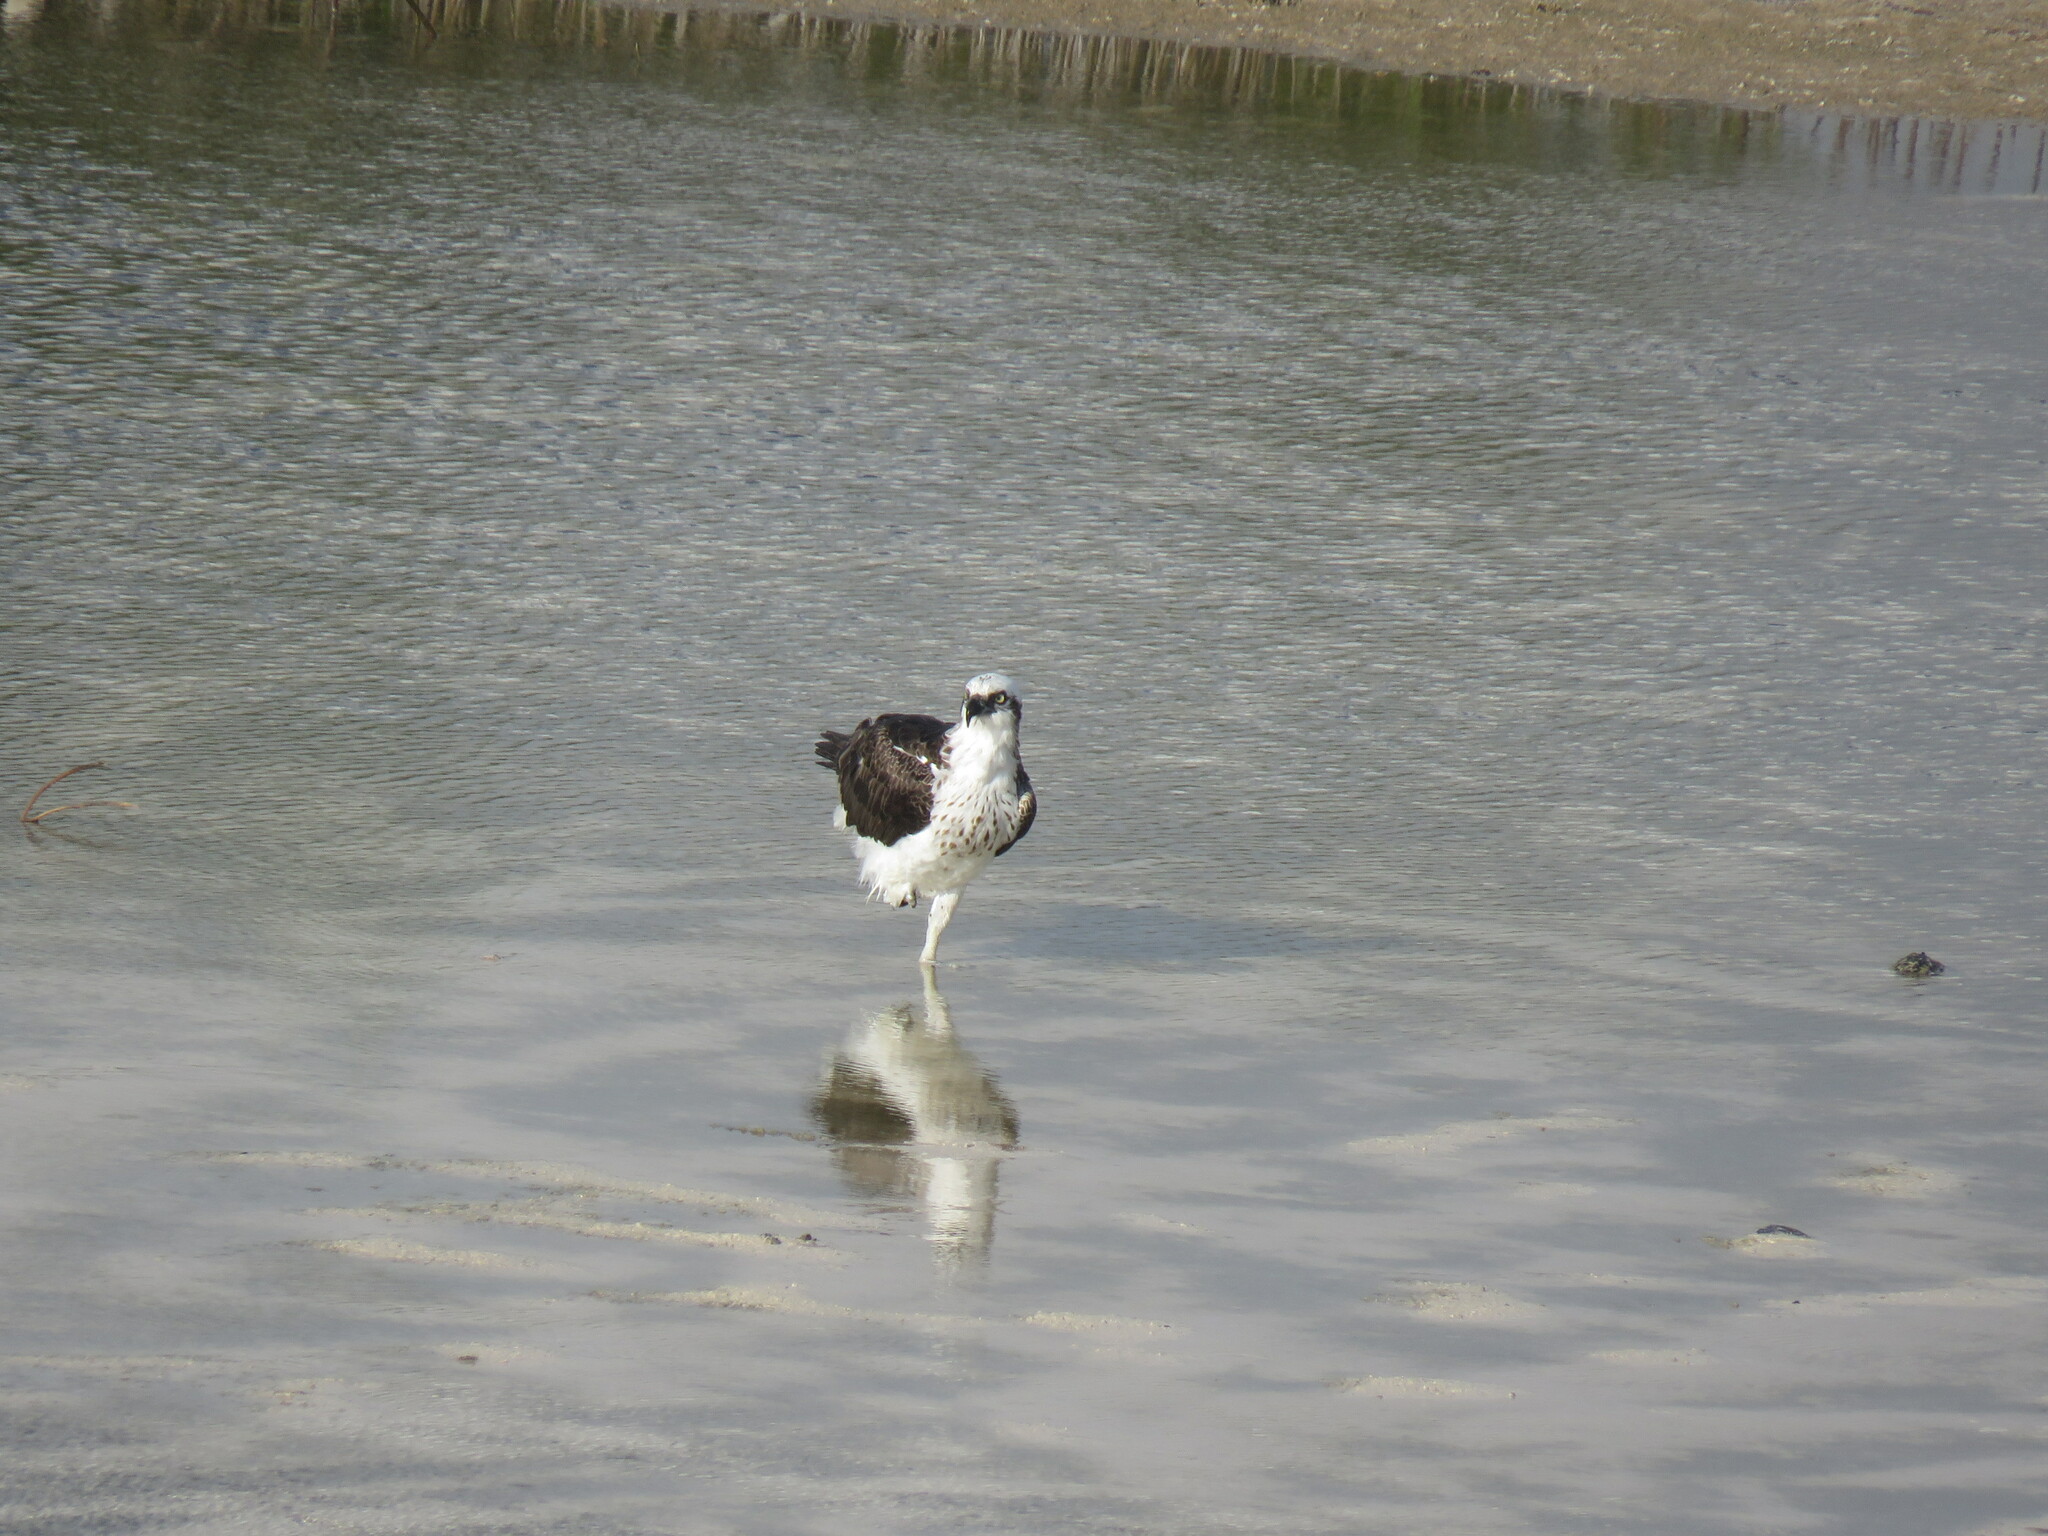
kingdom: Animalia
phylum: Chordata
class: Aves
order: Accipitriformes
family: Pandionidae
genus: Pandion
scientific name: Pandion haliaetus
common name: Osprey
